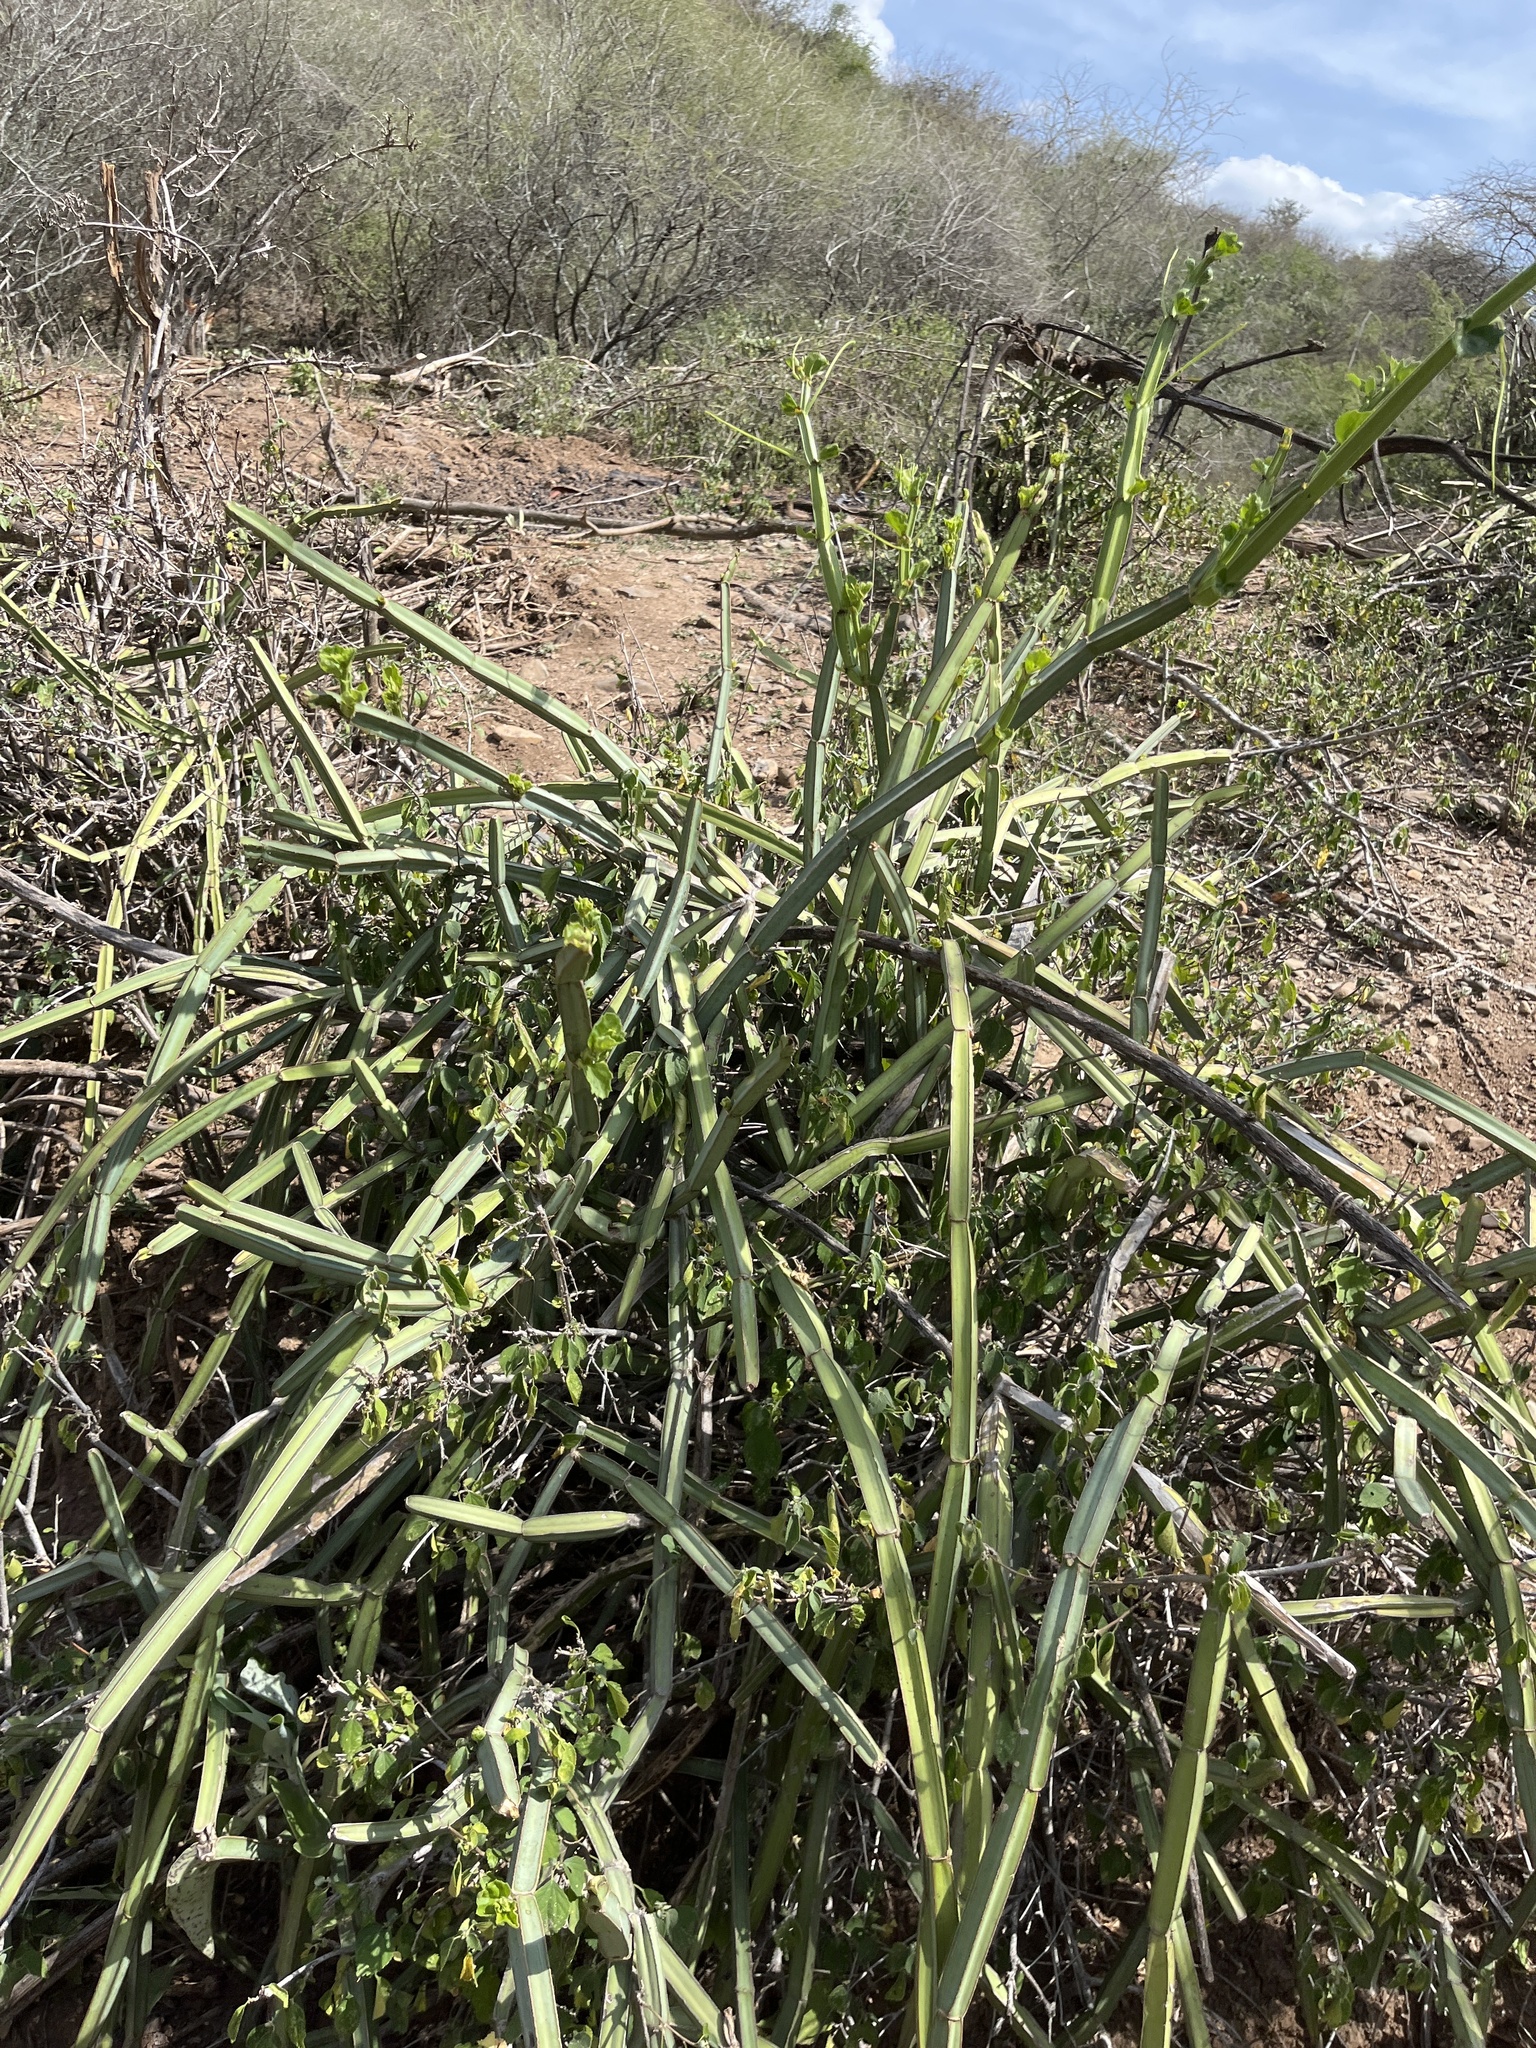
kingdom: Plantae
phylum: Tracheophyta
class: Magnoliopsida
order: Vitales
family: Vitaceae
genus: Cissus
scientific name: Cissus quadrangularis
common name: Veldt-grape
